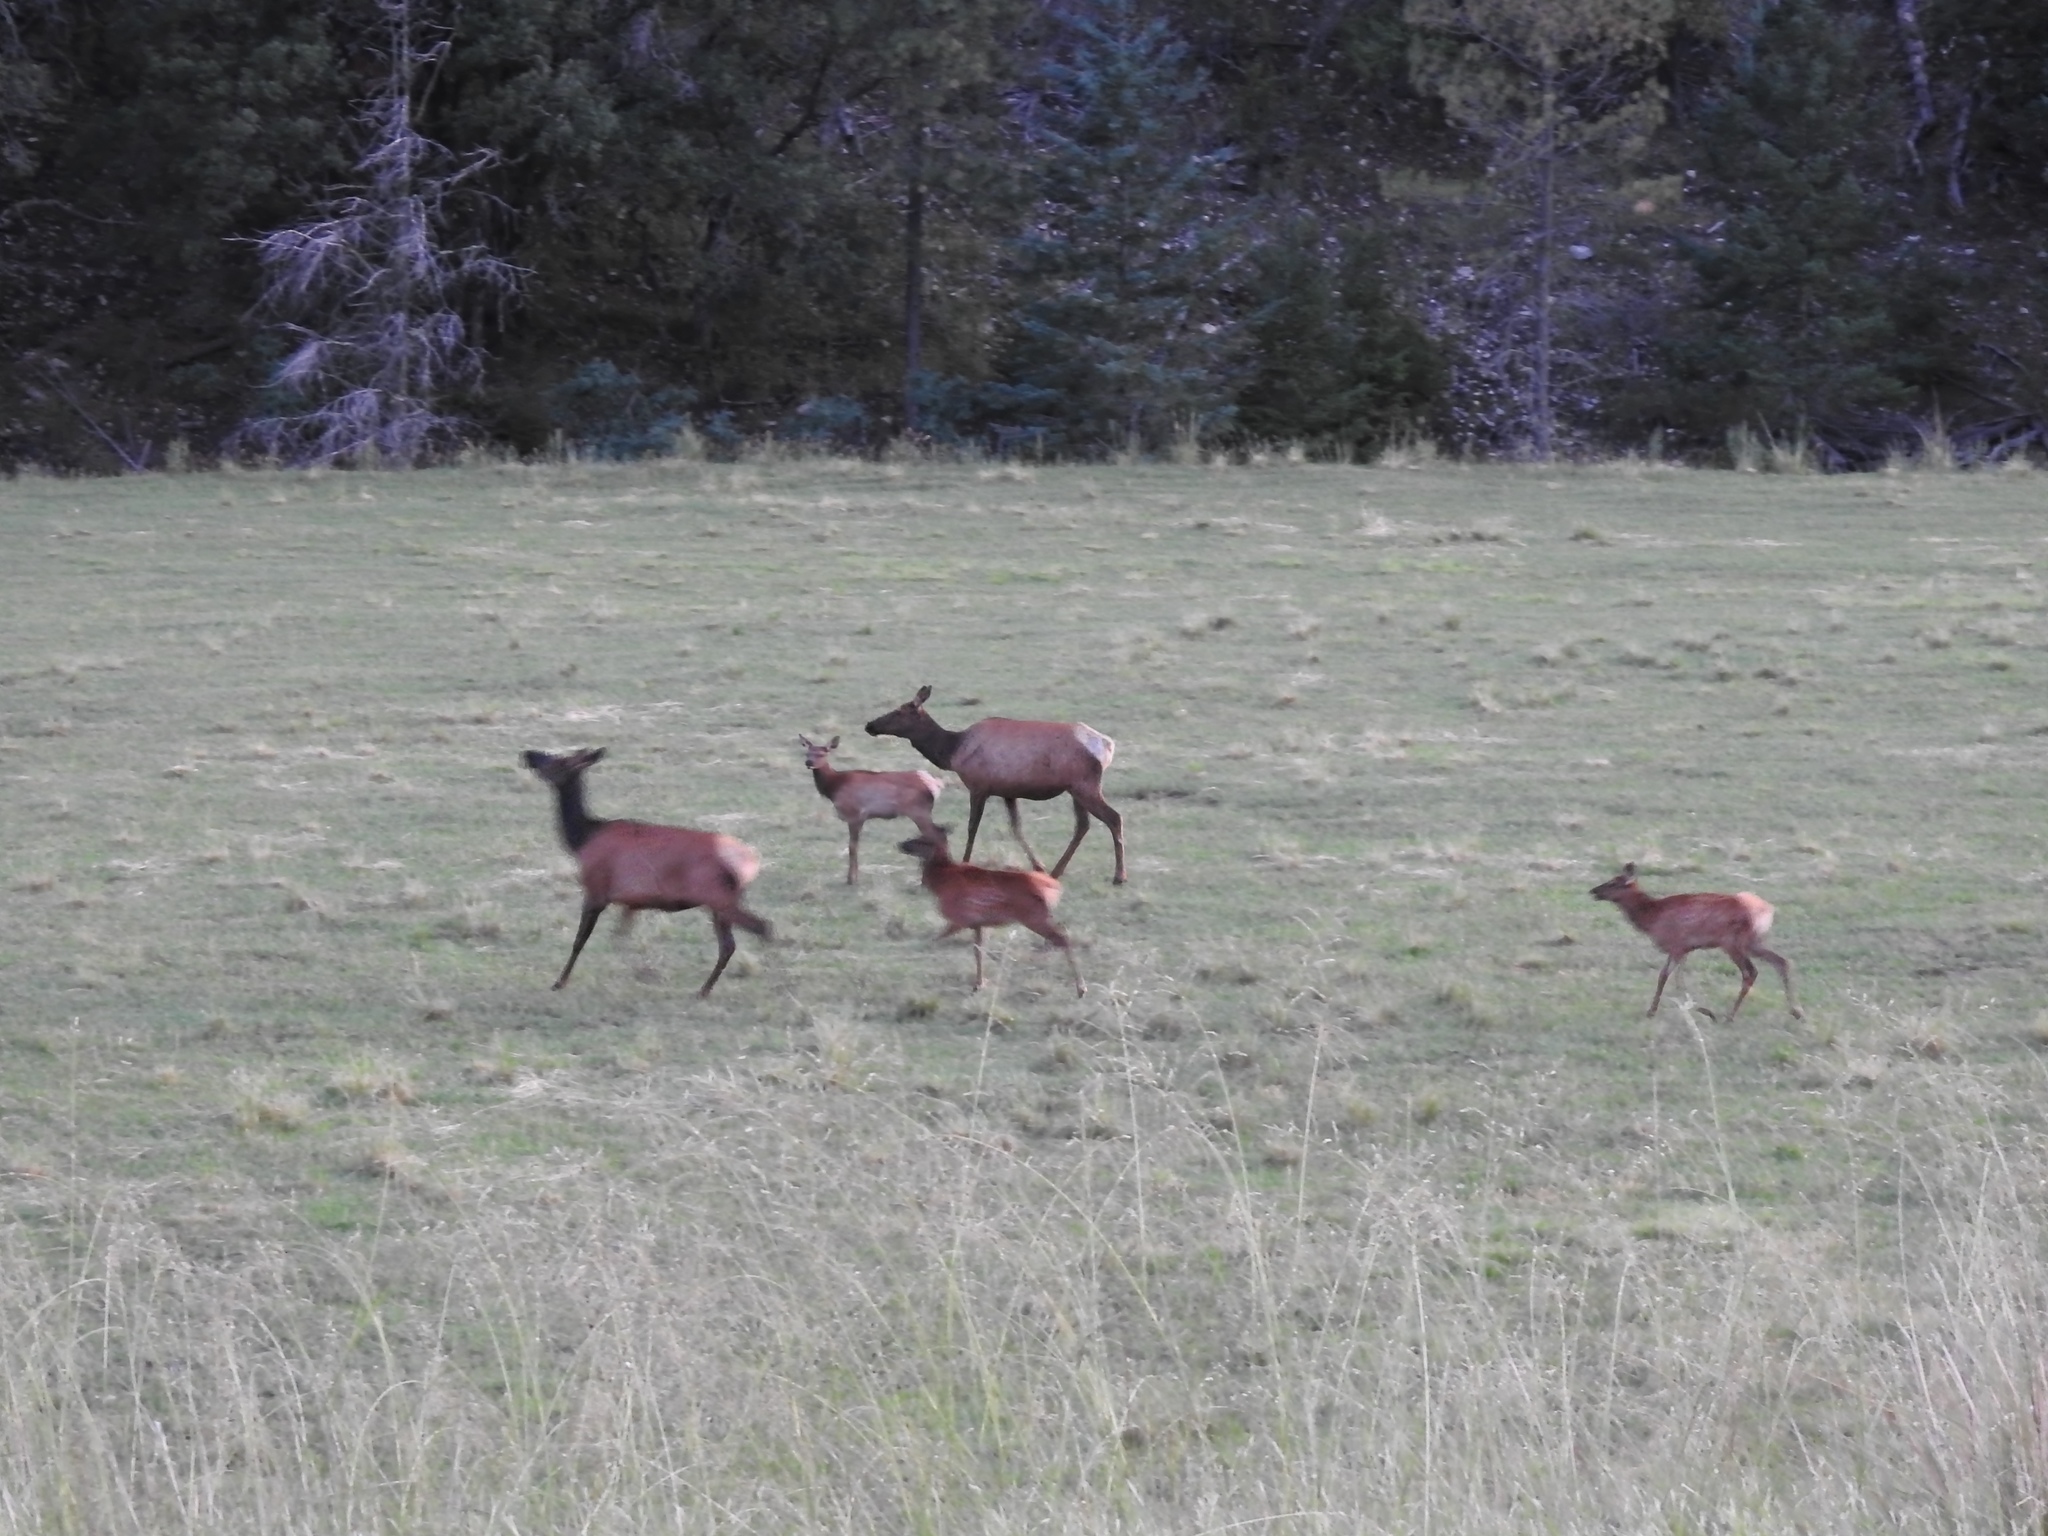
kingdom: Animalia
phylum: Chordata
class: Mammalia
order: Artiodactyla
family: Cervidae
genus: Cervus
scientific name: Cervus elaphus
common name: Red deer
